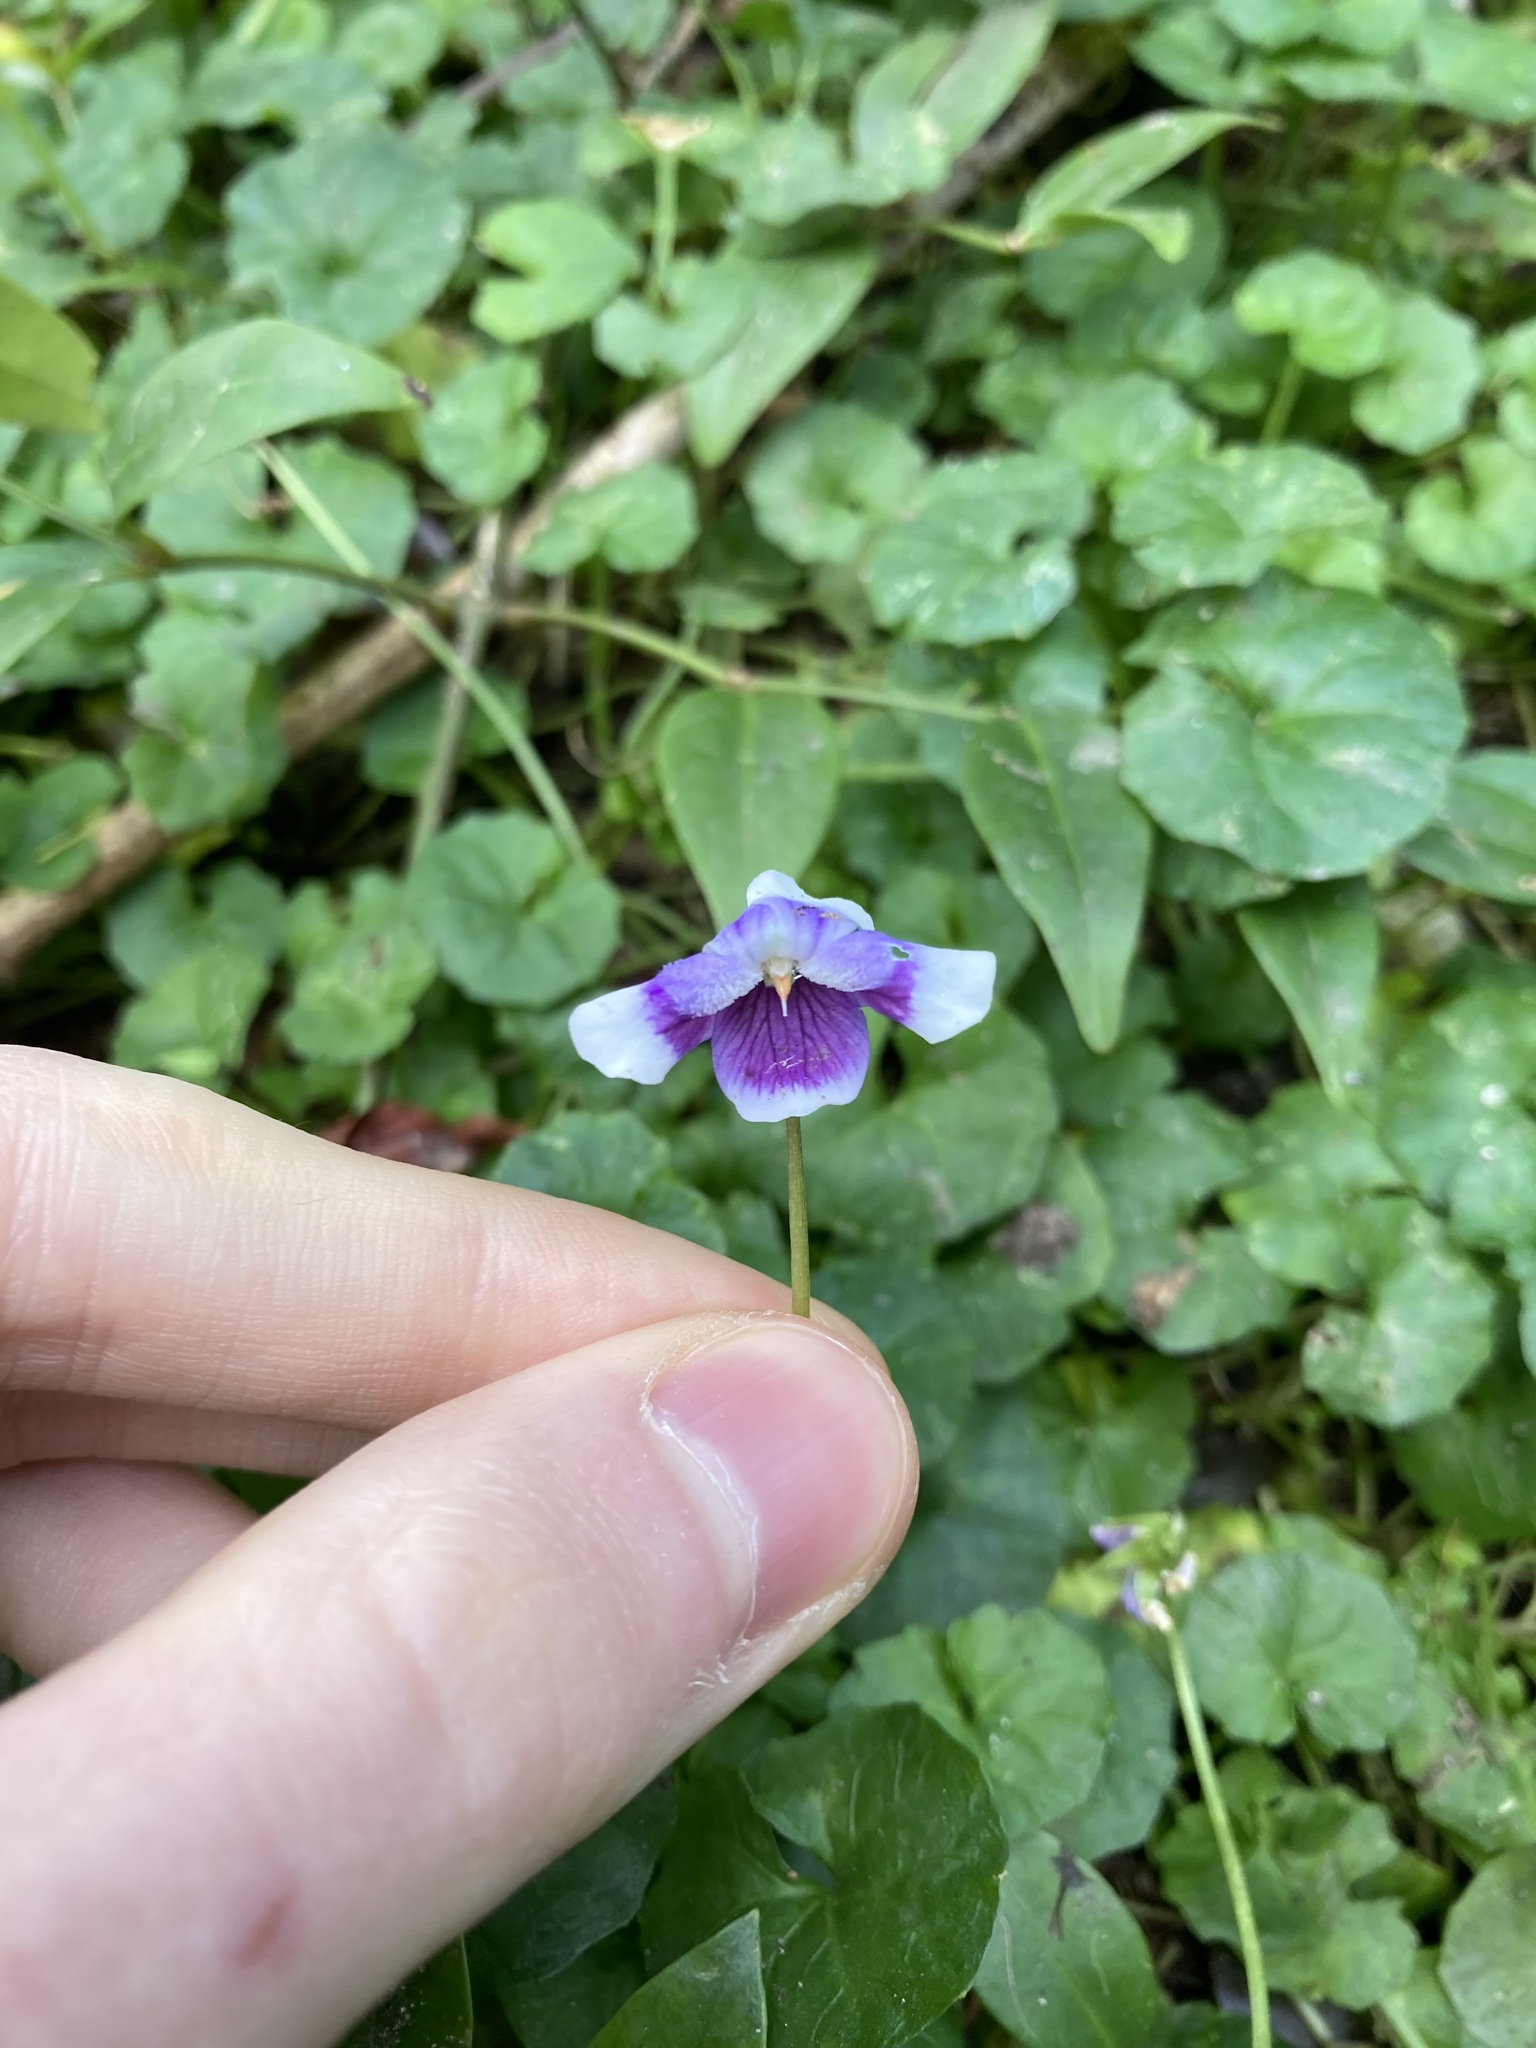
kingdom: Plantae
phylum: Tracheophyta
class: Magnoliopsida
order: Malpighiales
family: Violaceae
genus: Viola
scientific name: Viola banksii
